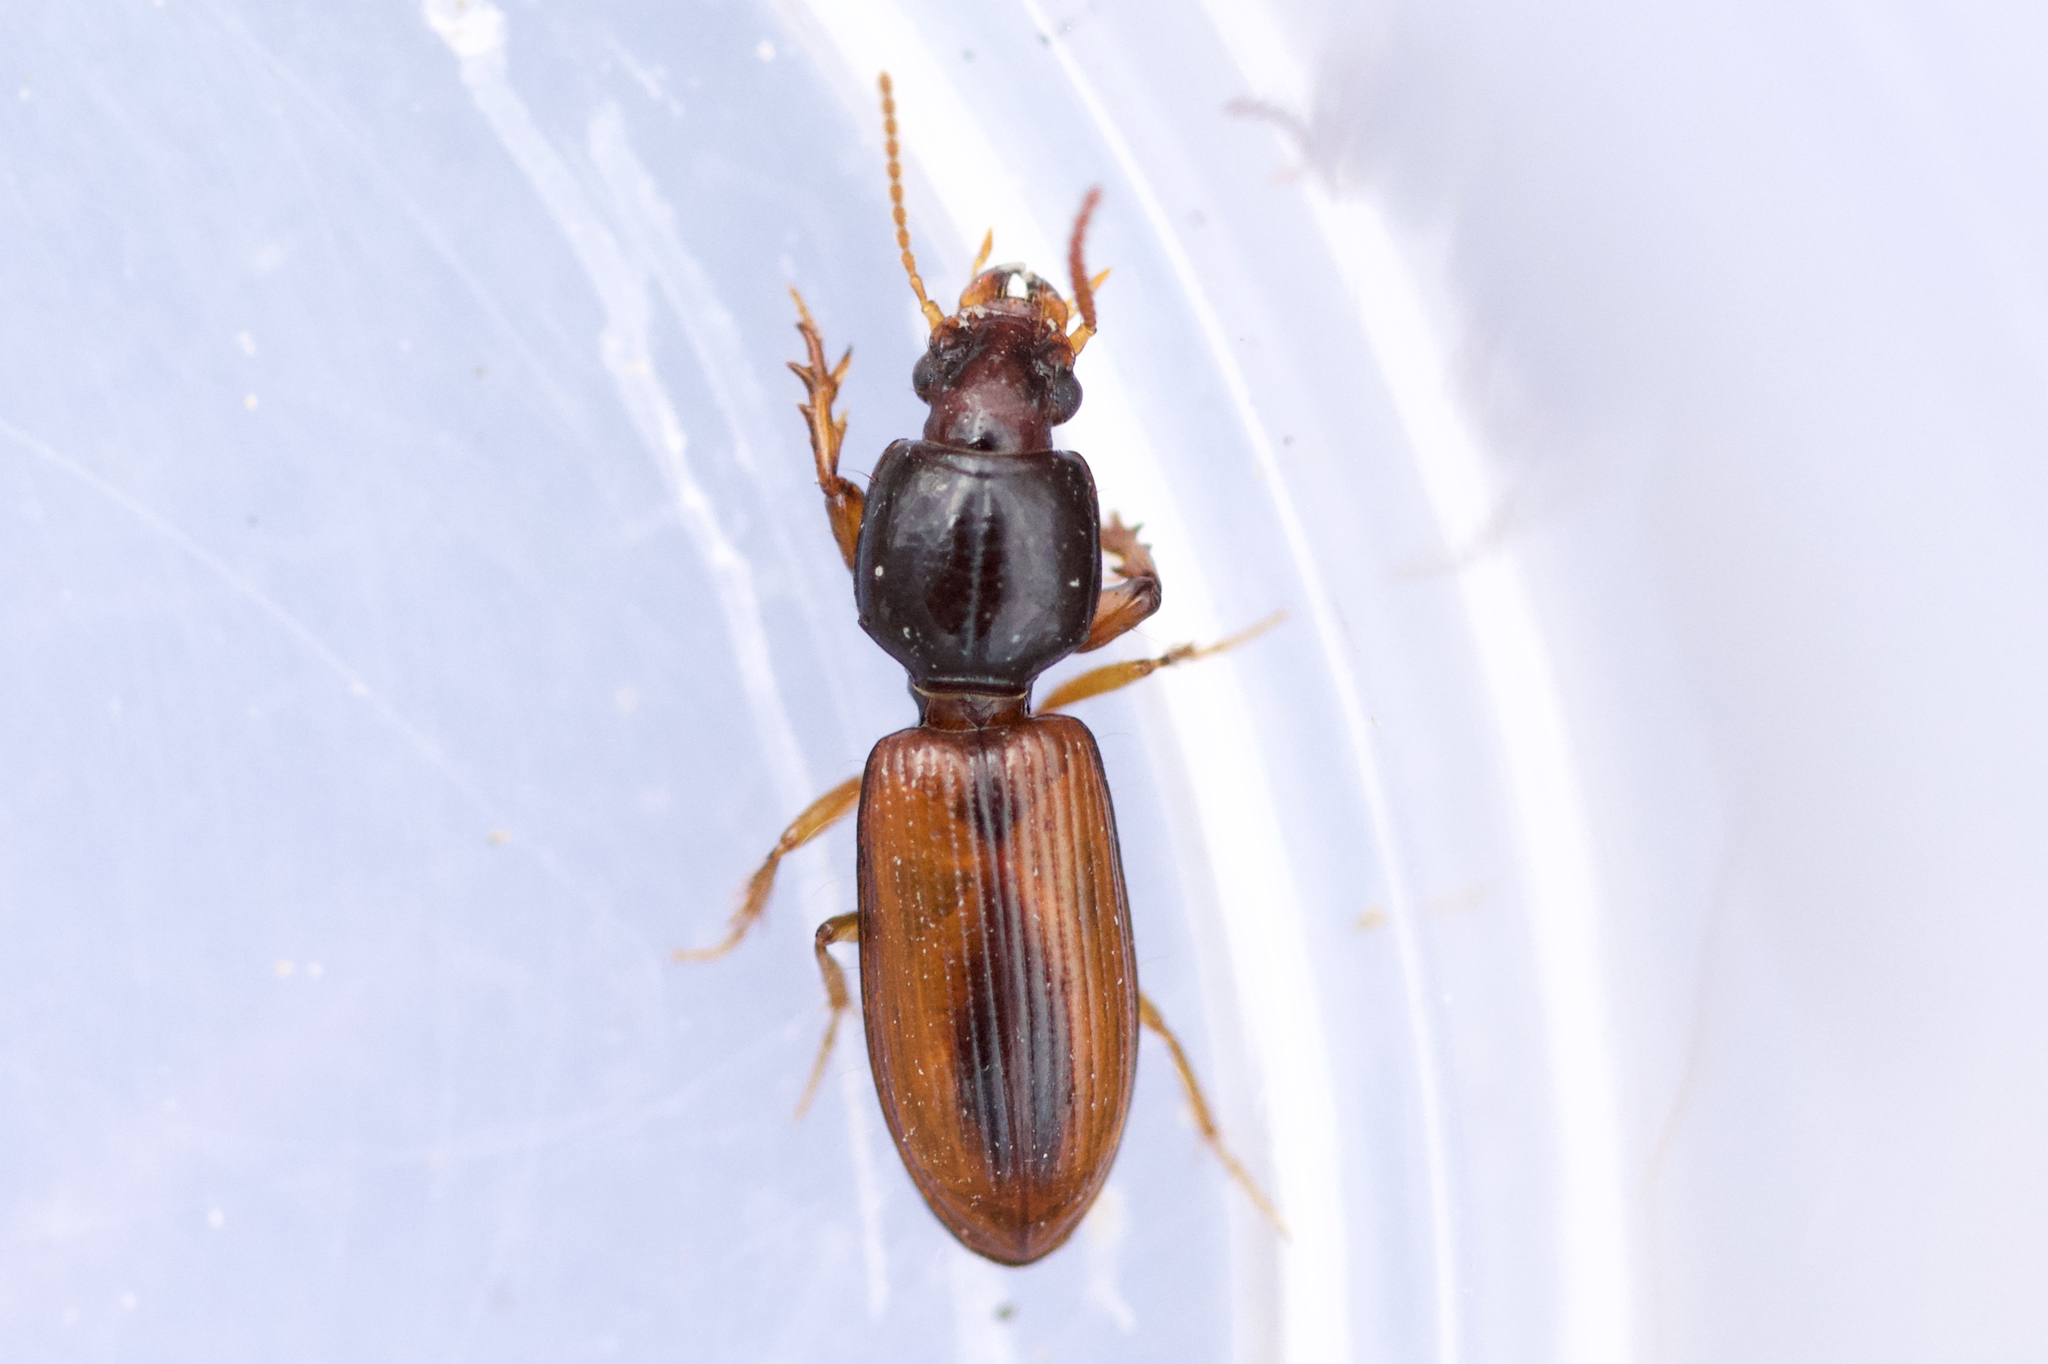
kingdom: Animalia
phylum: Arthropoda
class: Insecta
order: Coleoptera
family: Carabidae
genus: Clivina
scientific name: Clivina collaris
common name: Collared pedunculate ground beetle
